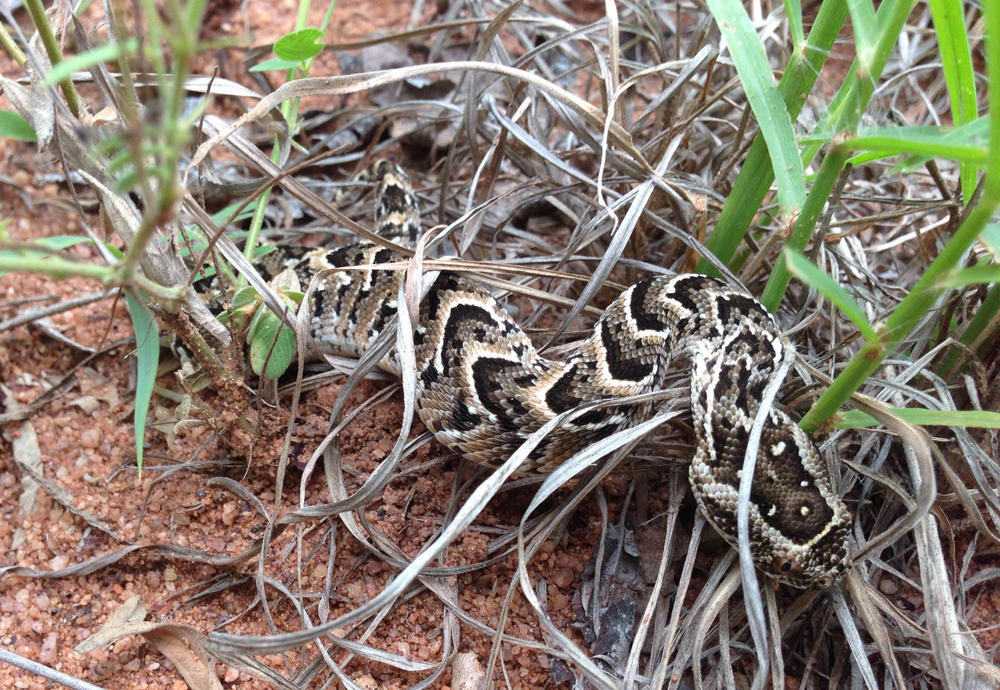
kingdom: Animalia
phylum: Chordata
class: Squamata
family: Viperidae
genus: Bitis
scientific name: Bitis arietans
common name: Puff adder
